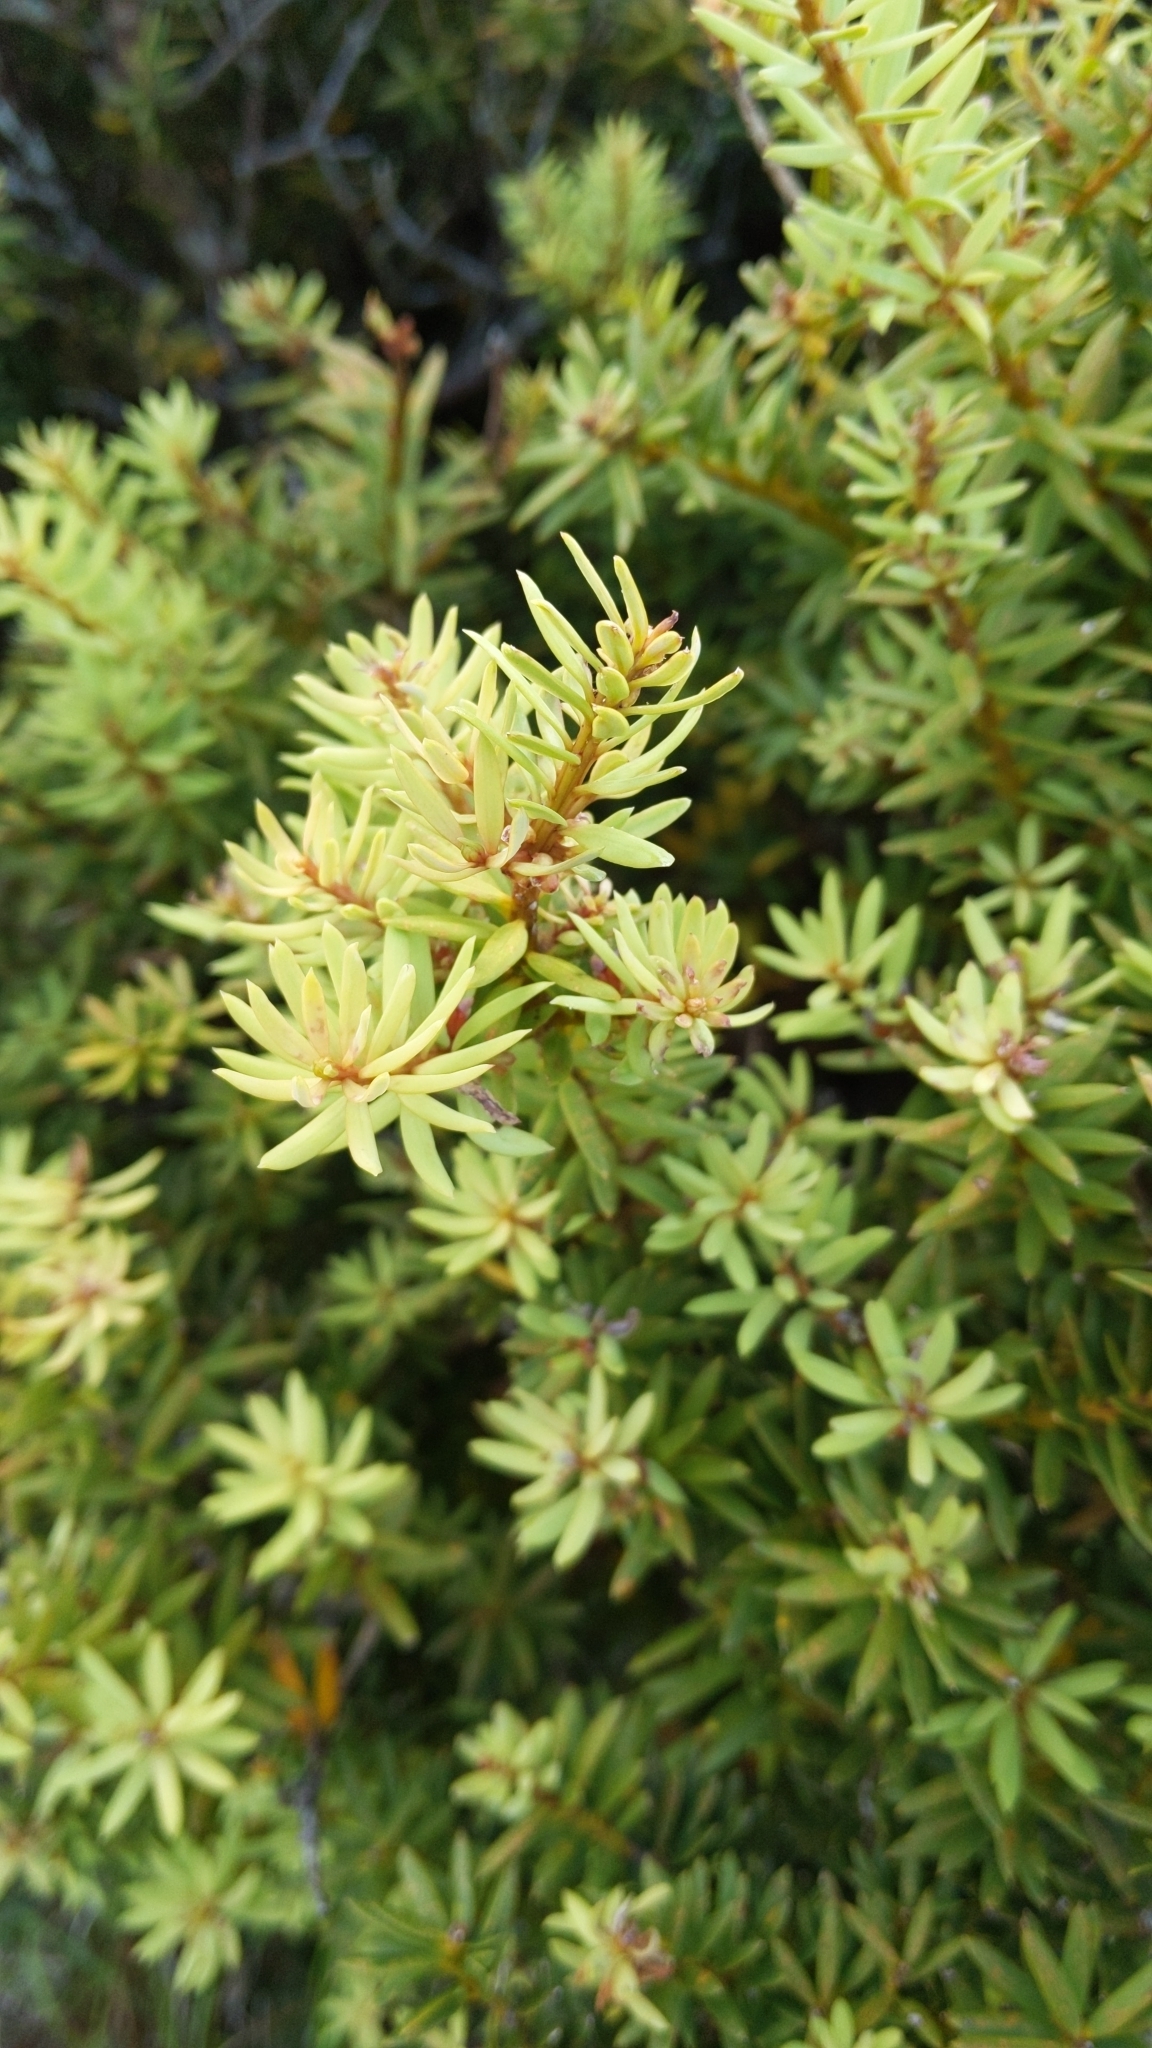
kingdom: Plantae
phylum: Tracheophyta
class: Pinopsida
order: Pinales
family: Podocarpaceae
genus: Podocarpus
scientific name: Podocarpus laetus
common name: Hall's totara
